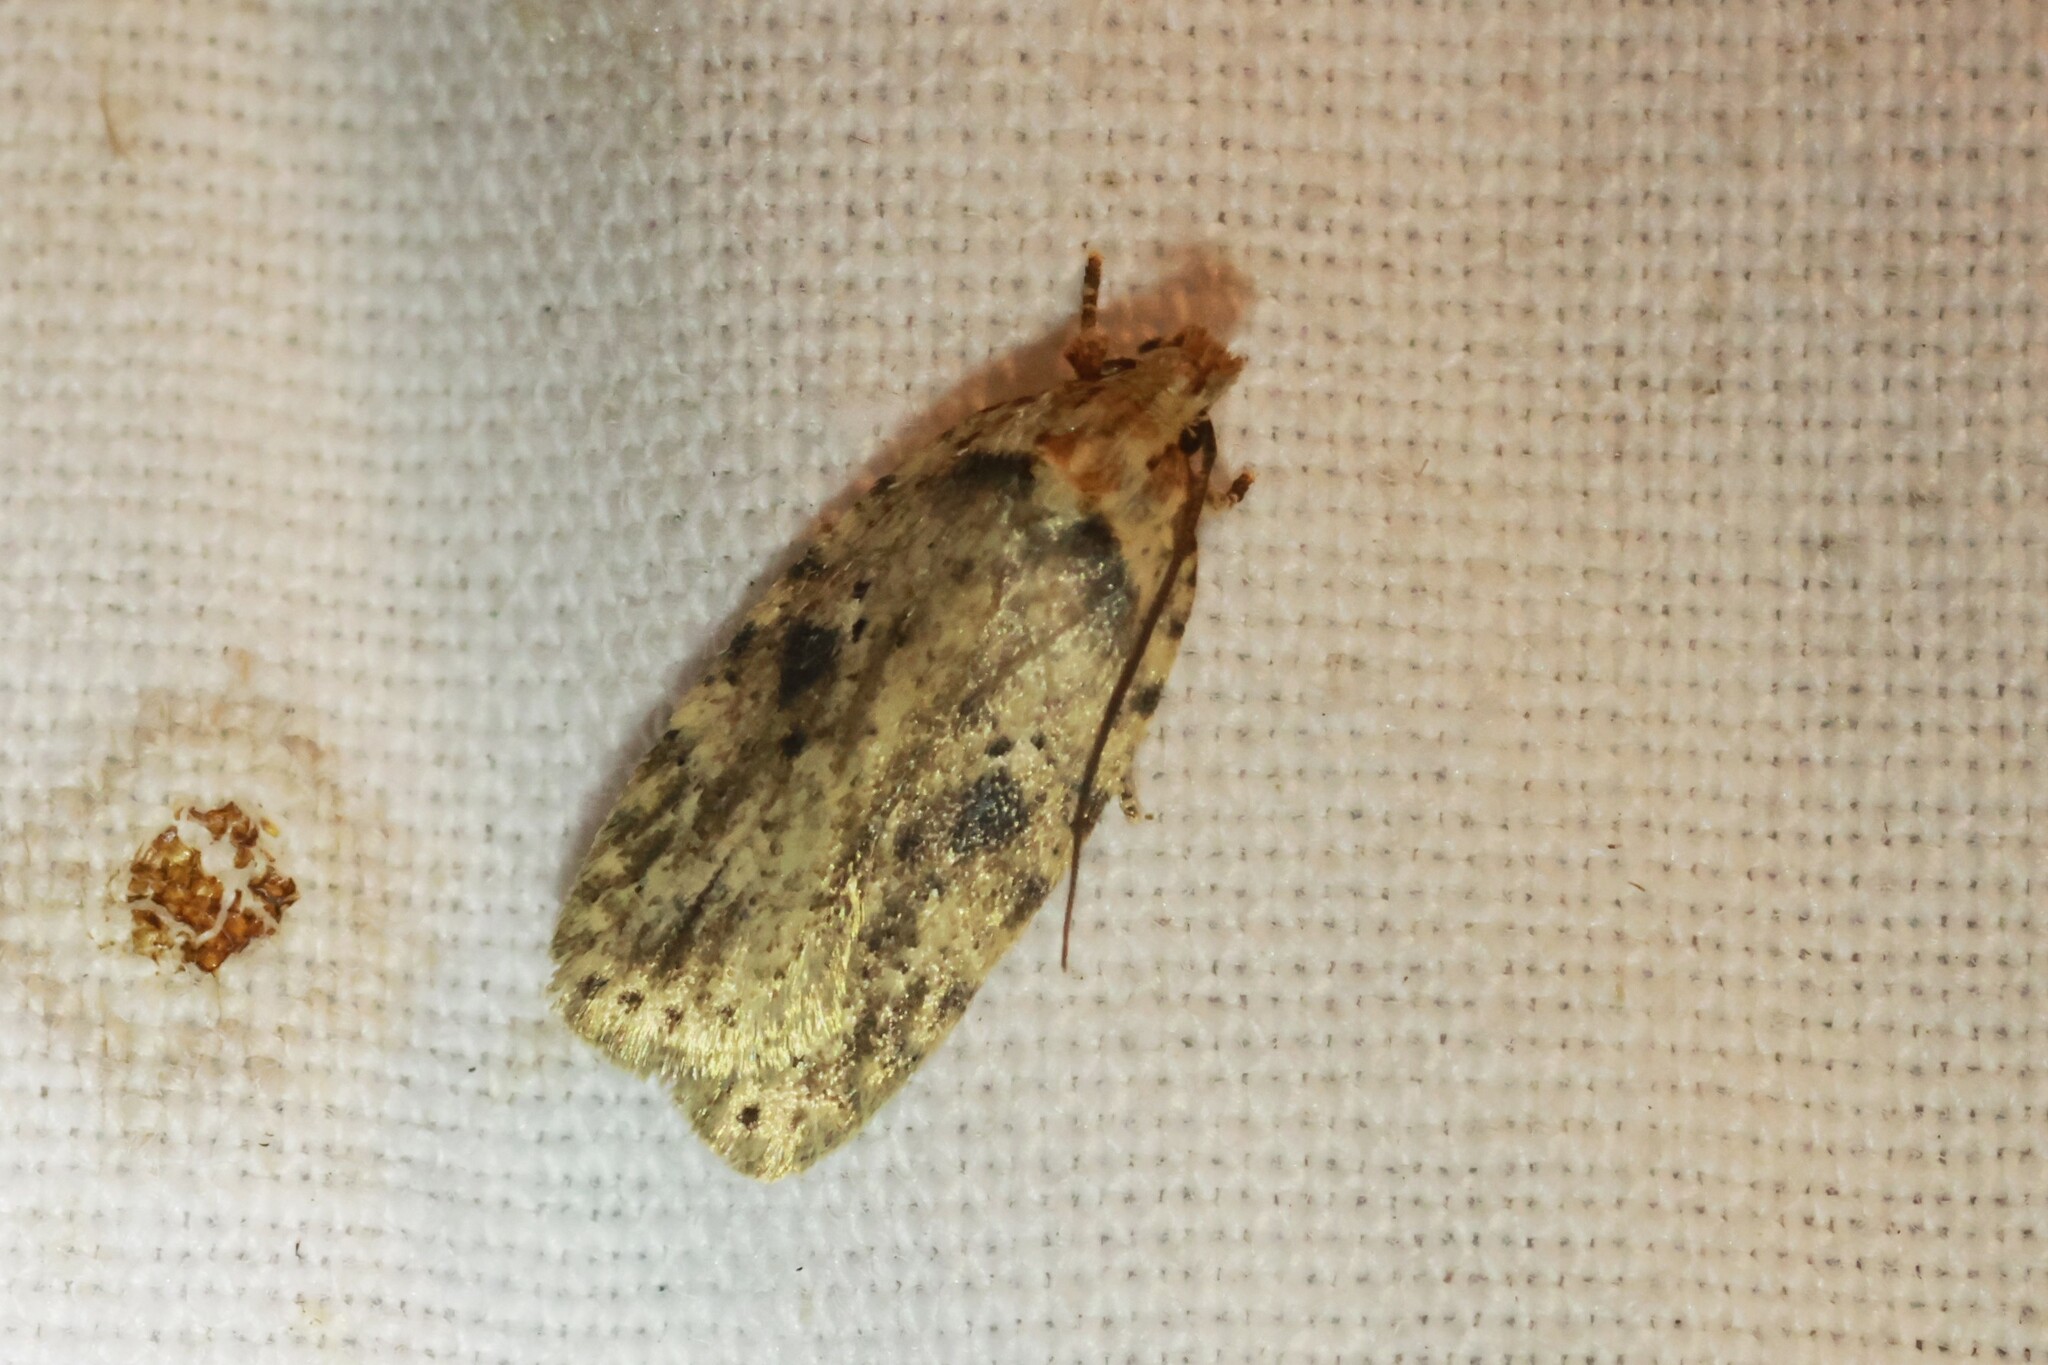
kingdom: Animalia
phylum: Arthropoda
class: Insecta
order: Lepidoptera
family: Depressariidae
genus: Agonopterix
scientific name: Agonopterix pulvipennella
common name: Goldenrod leafffolder
